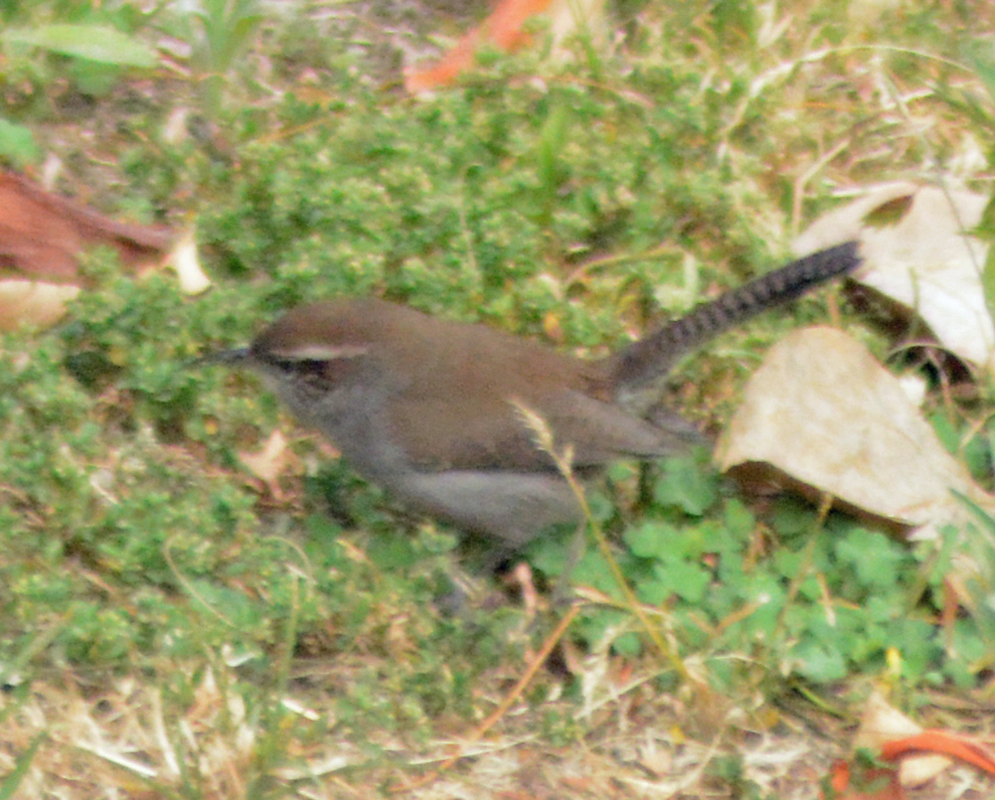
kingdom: Animalia
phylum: Chordata
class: Aves
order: Passeriformes
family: Troglodytidae
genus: Thryomanes
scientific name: Thryomanes bewickii
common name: Bewick's wren
